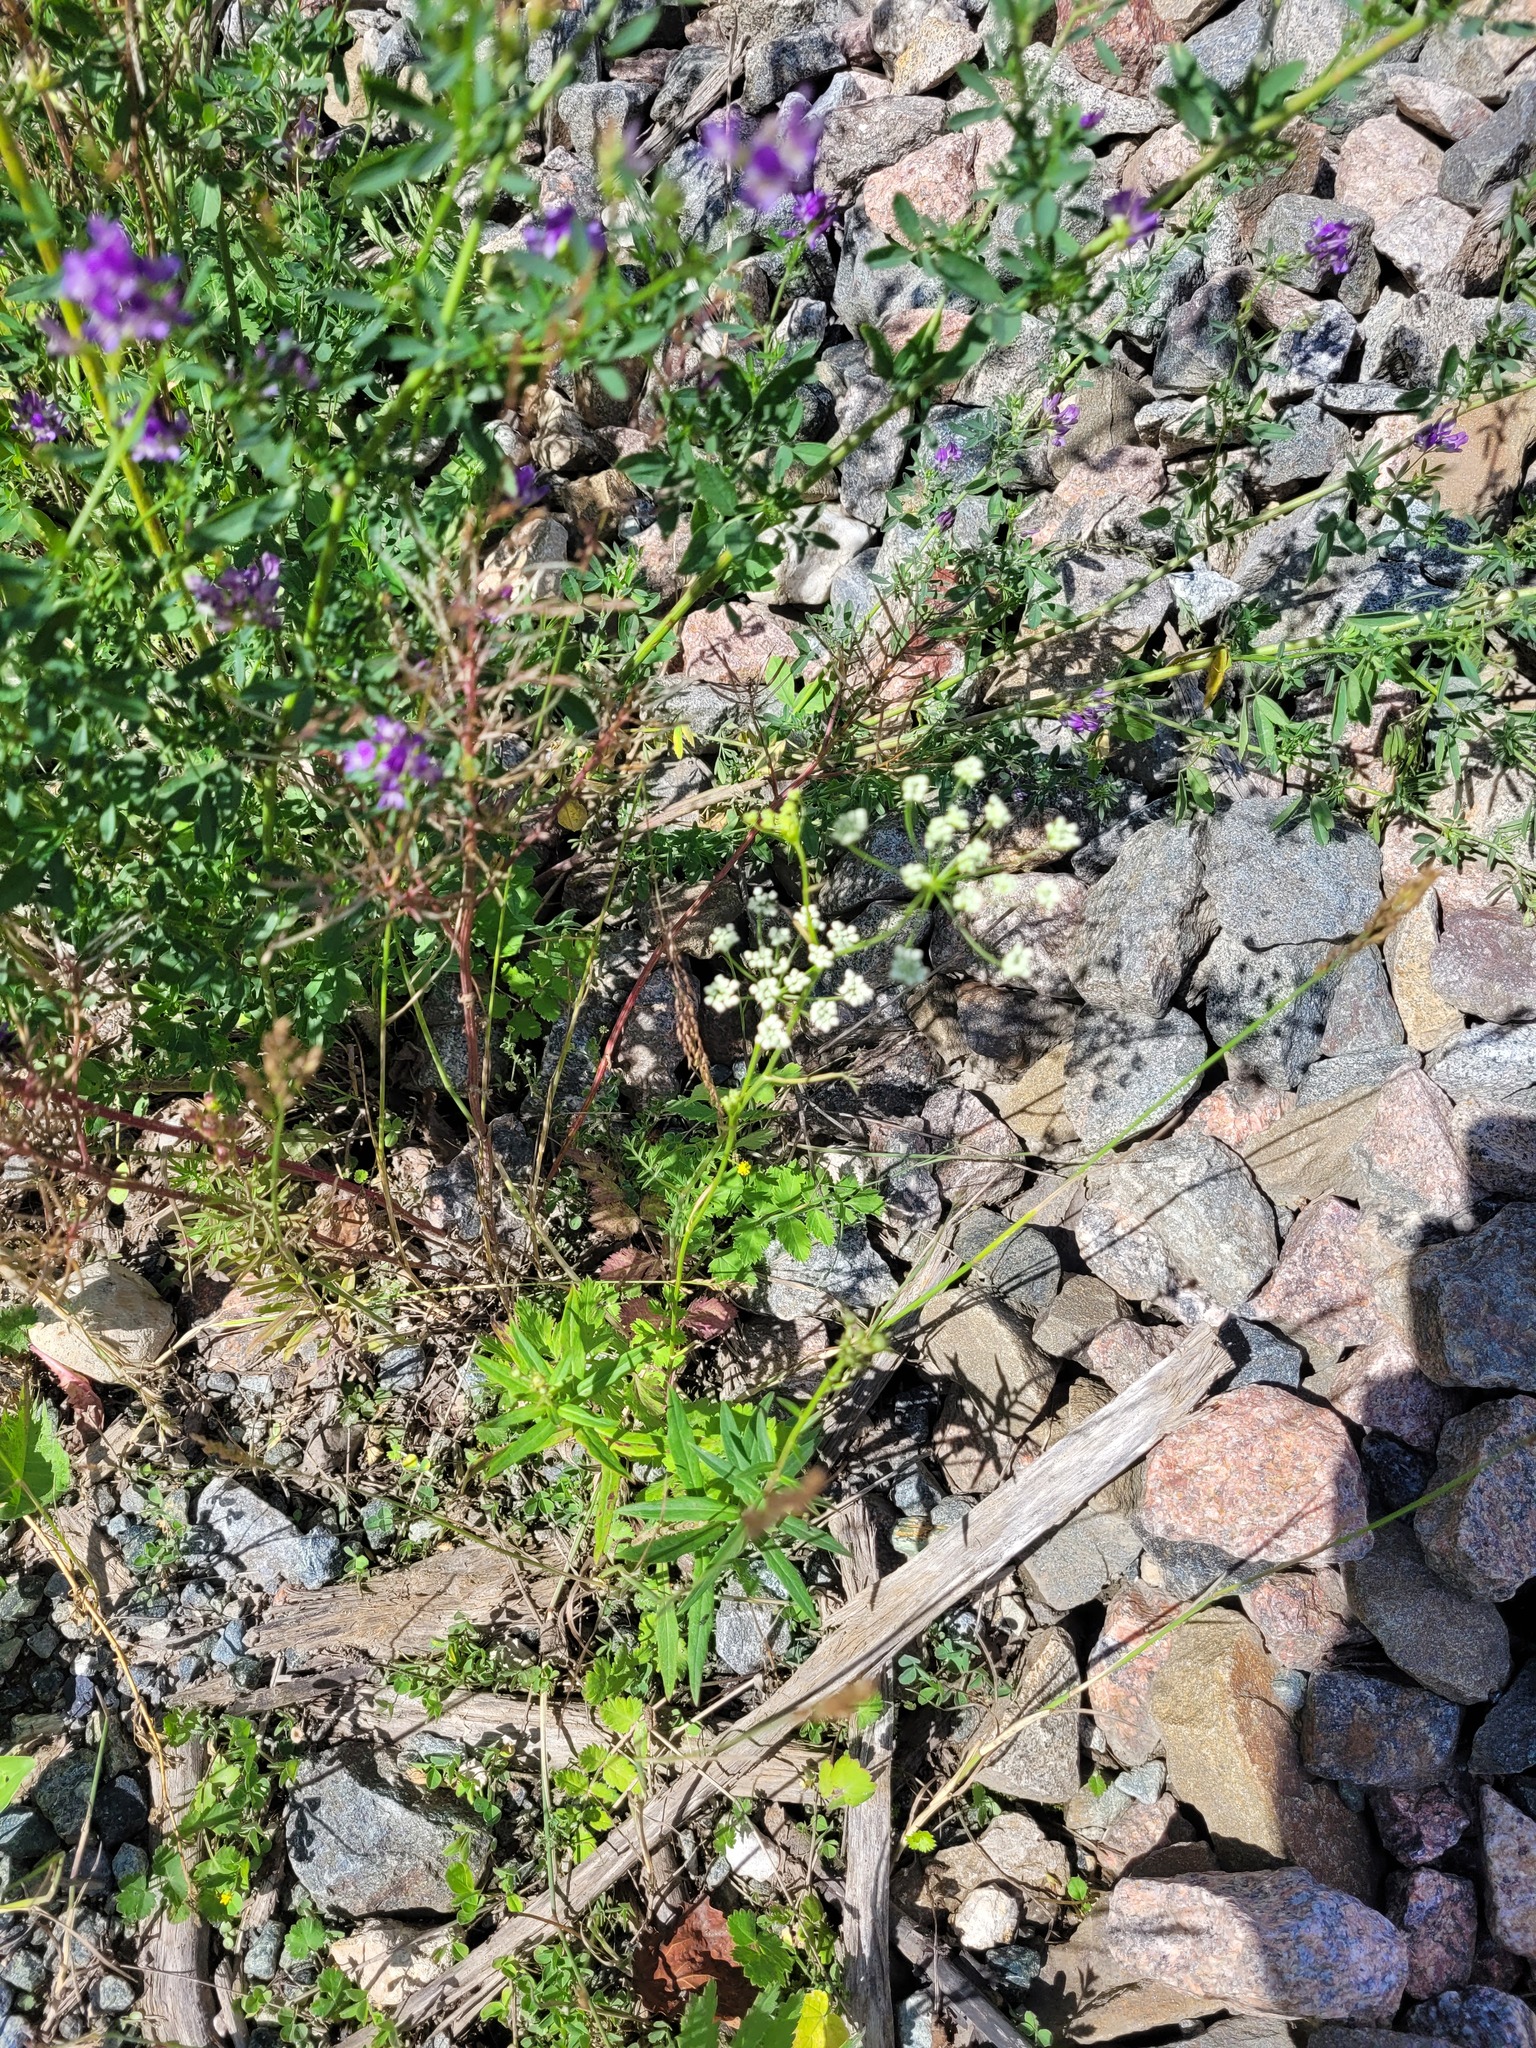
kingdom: Plantae
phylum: Tracheophyta
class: Magnoliopsida
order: Apiales
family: Apiaceae
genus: Pimpinella
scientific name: Pimpinella saxifraga
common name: Burnet-saxifrage
